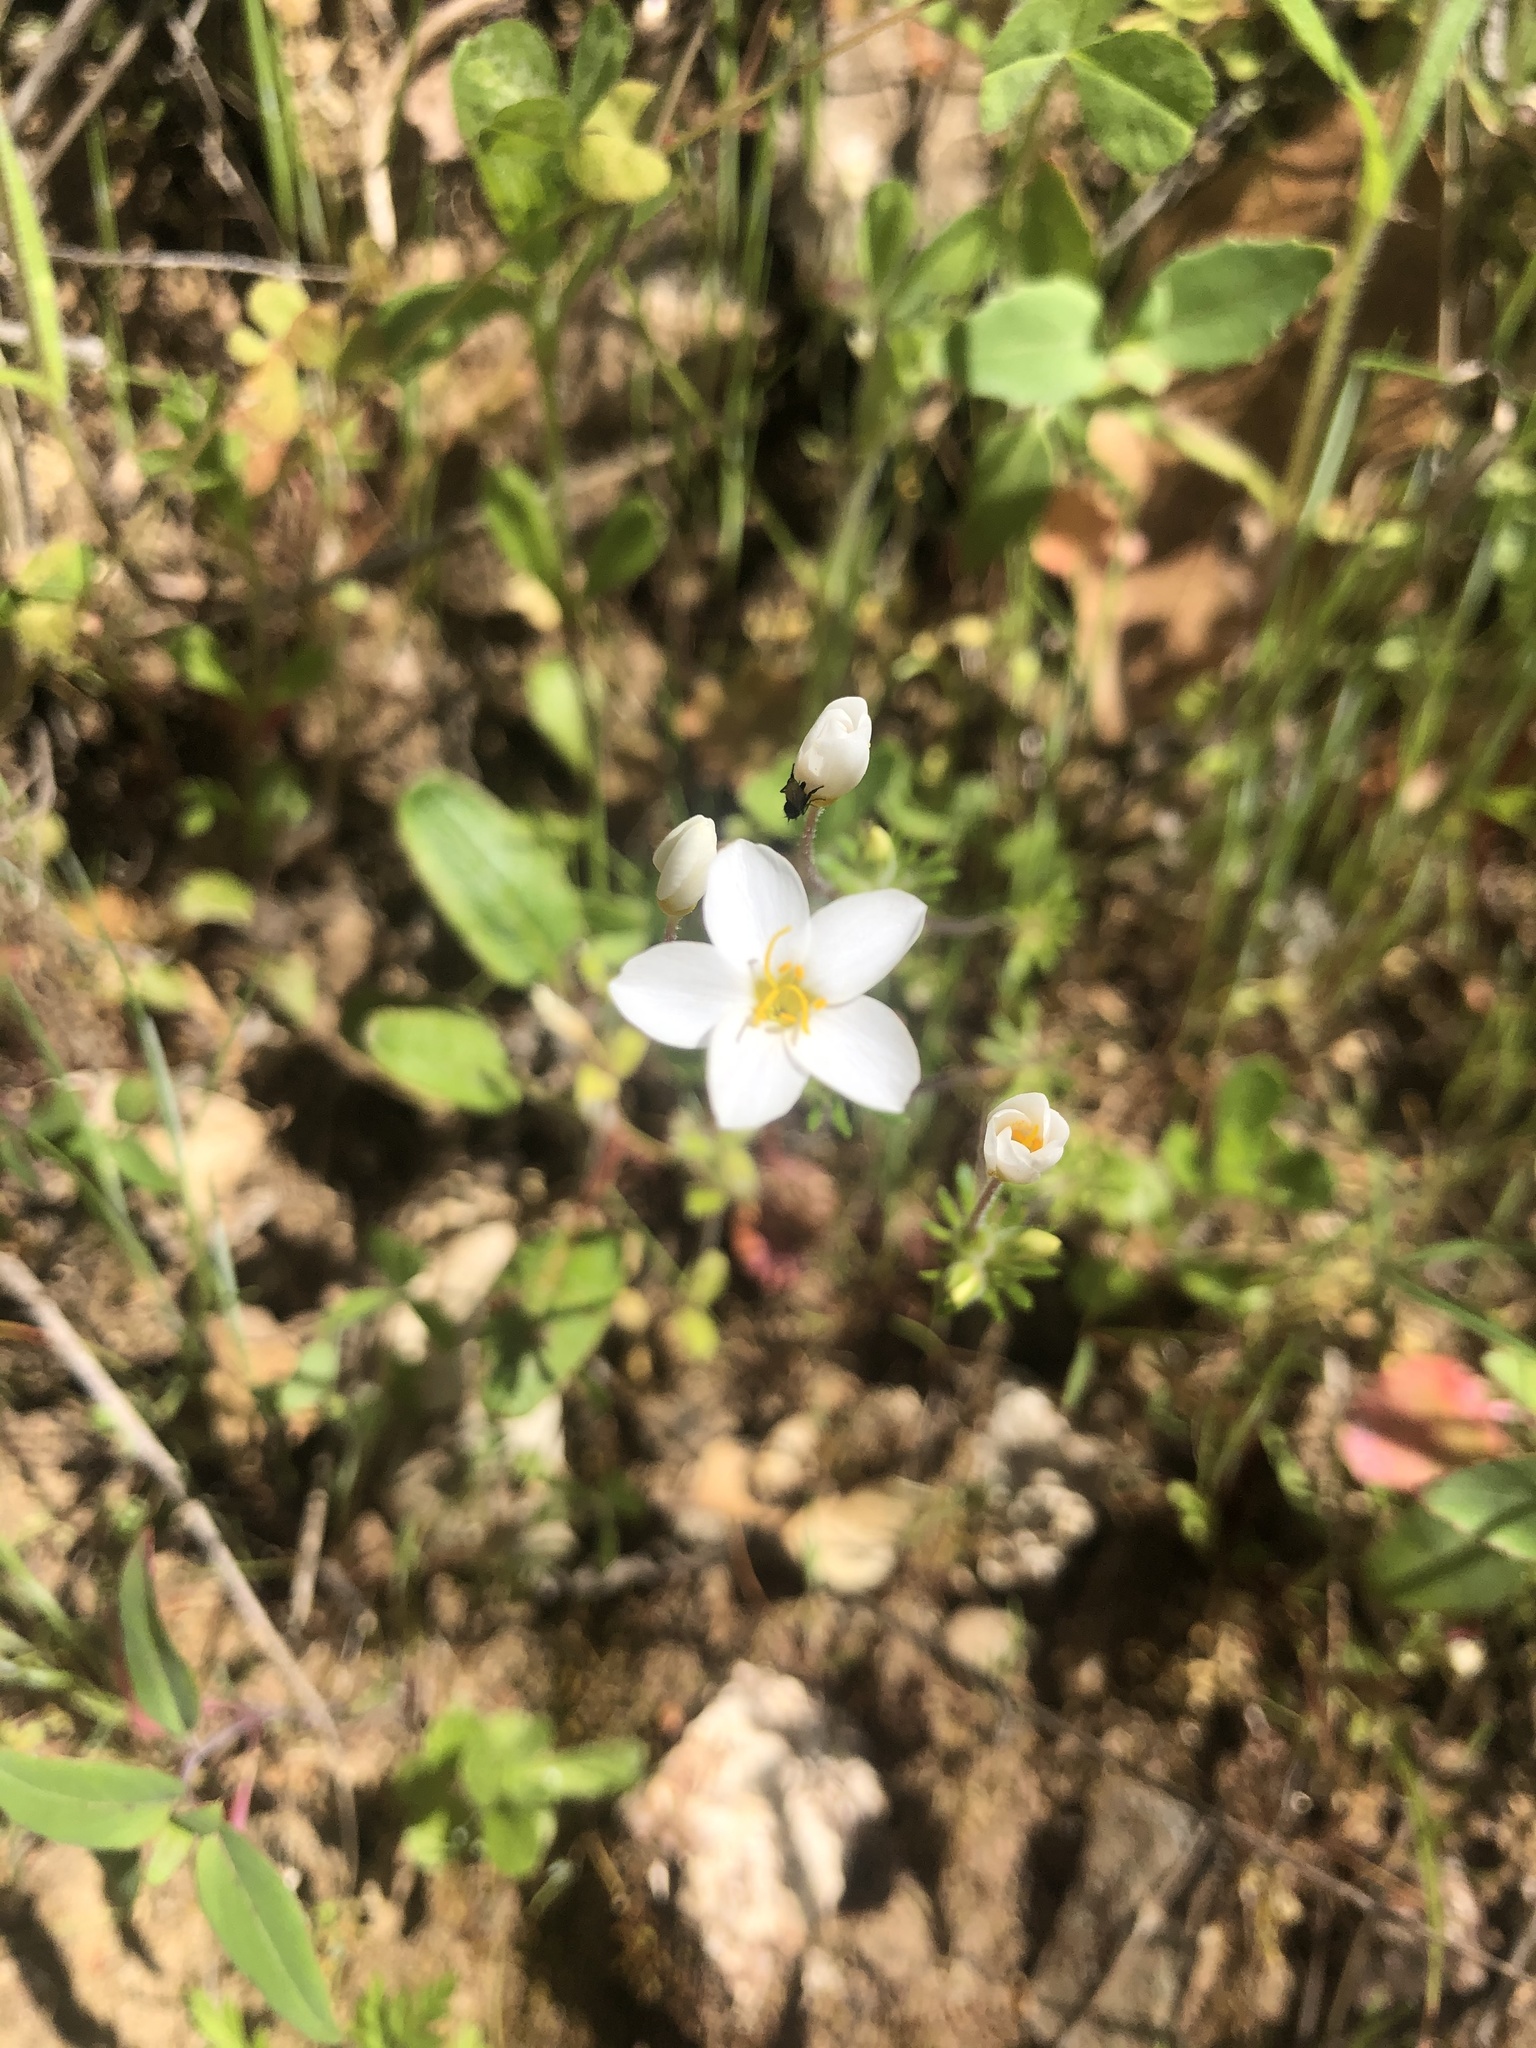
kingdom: Plantae
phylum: Tracheophyta
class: Magnoliopsida
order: Ericales
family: Polemoniaceae
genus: Leptosiphon
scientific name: Leptosiphon parviflorus
